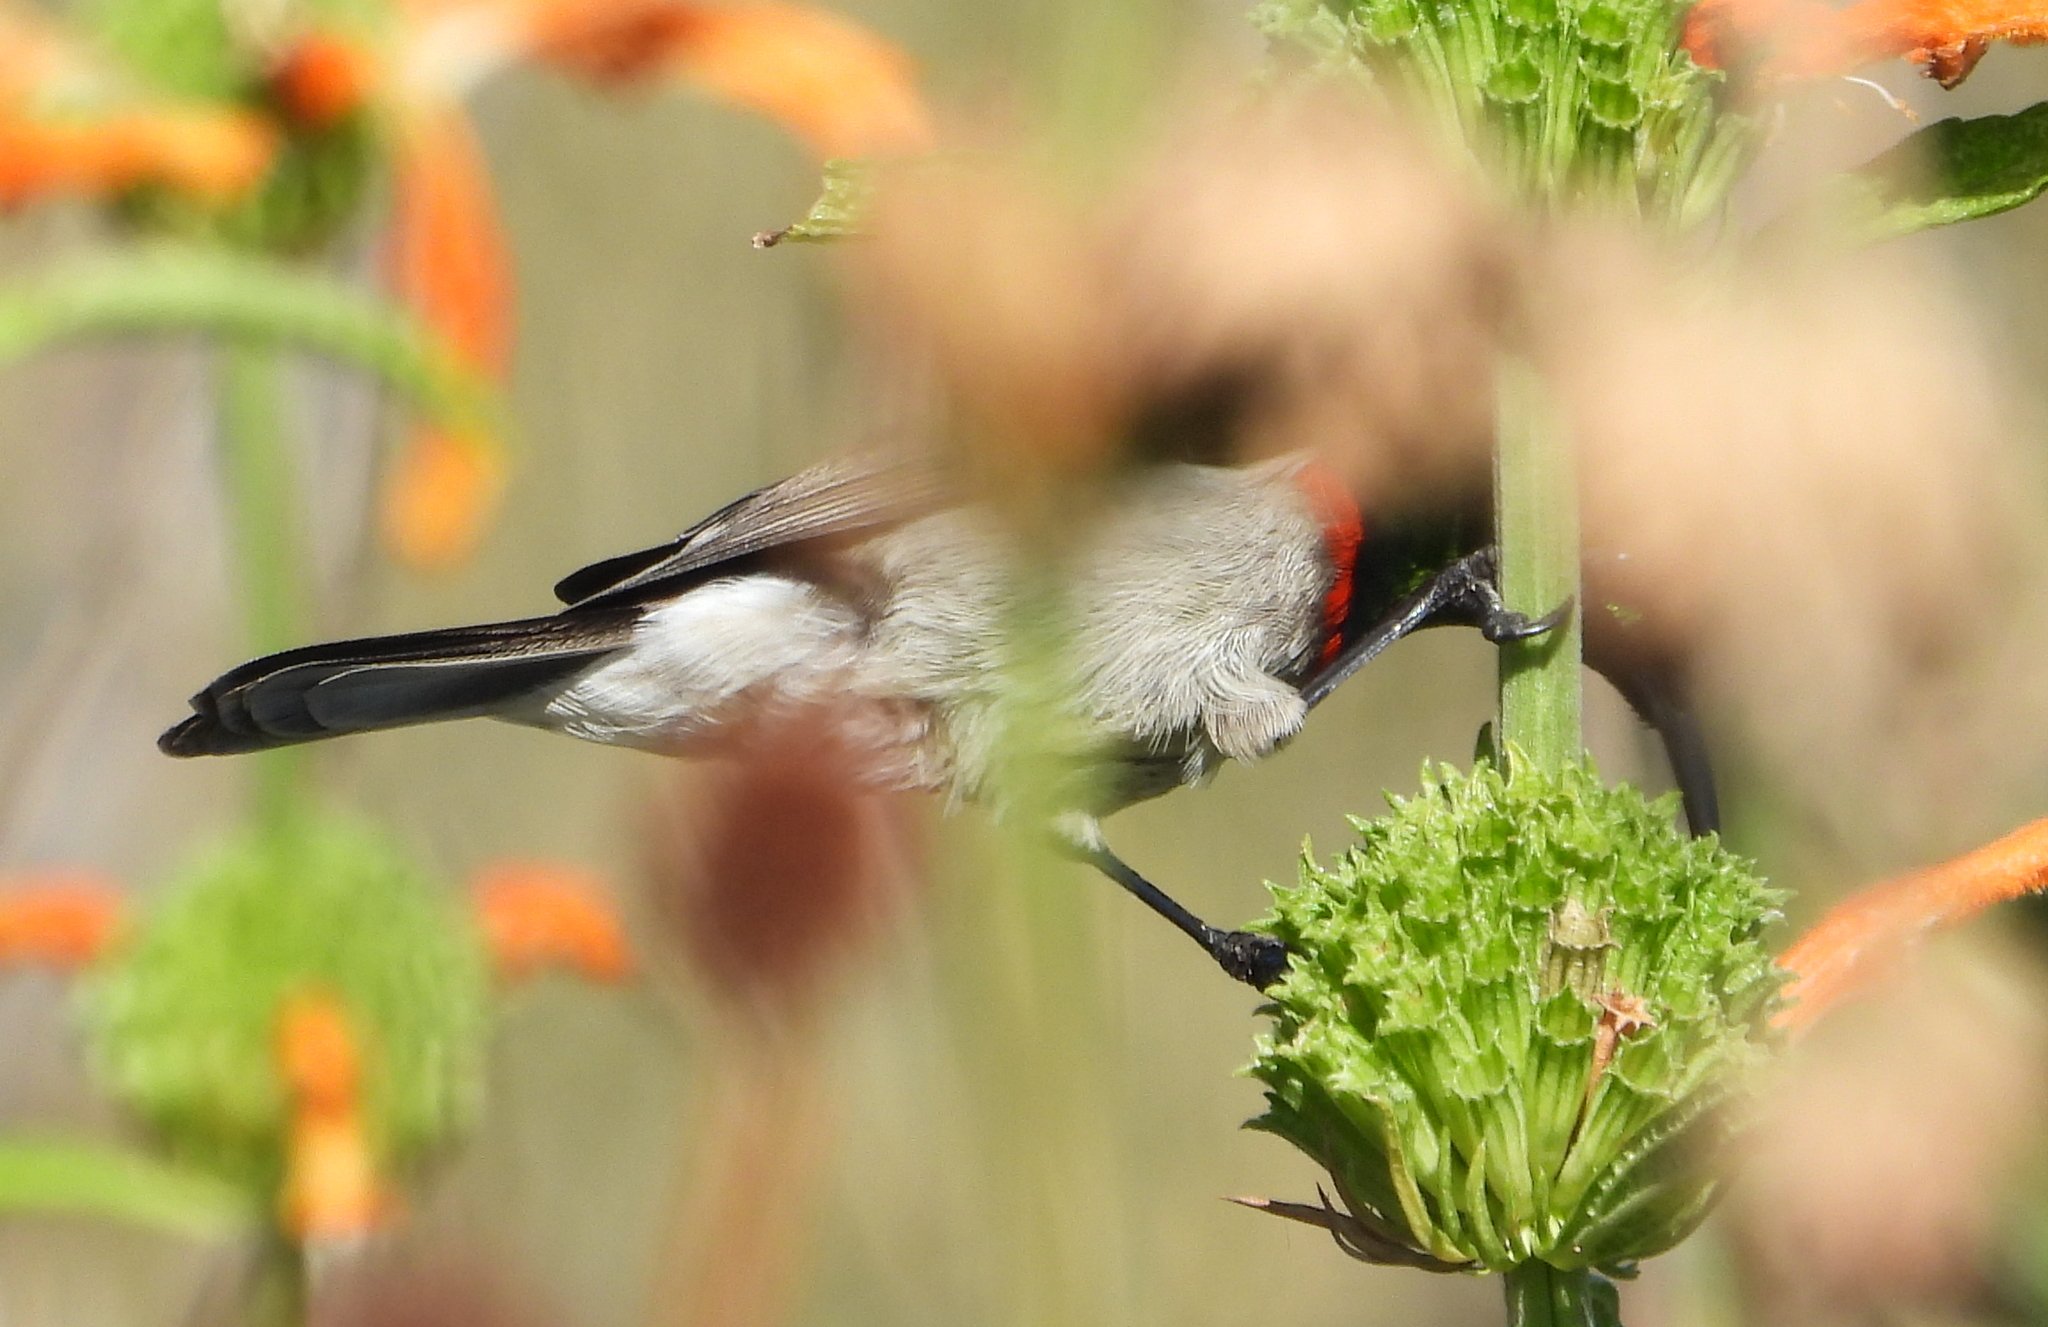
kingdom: Animalia
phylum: Chordata
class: Aves
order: Passeriformes
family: Nectariniidae
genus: Cinnyris
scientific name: Cinnyris chalybeus
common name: Southern double-collared sunbird
